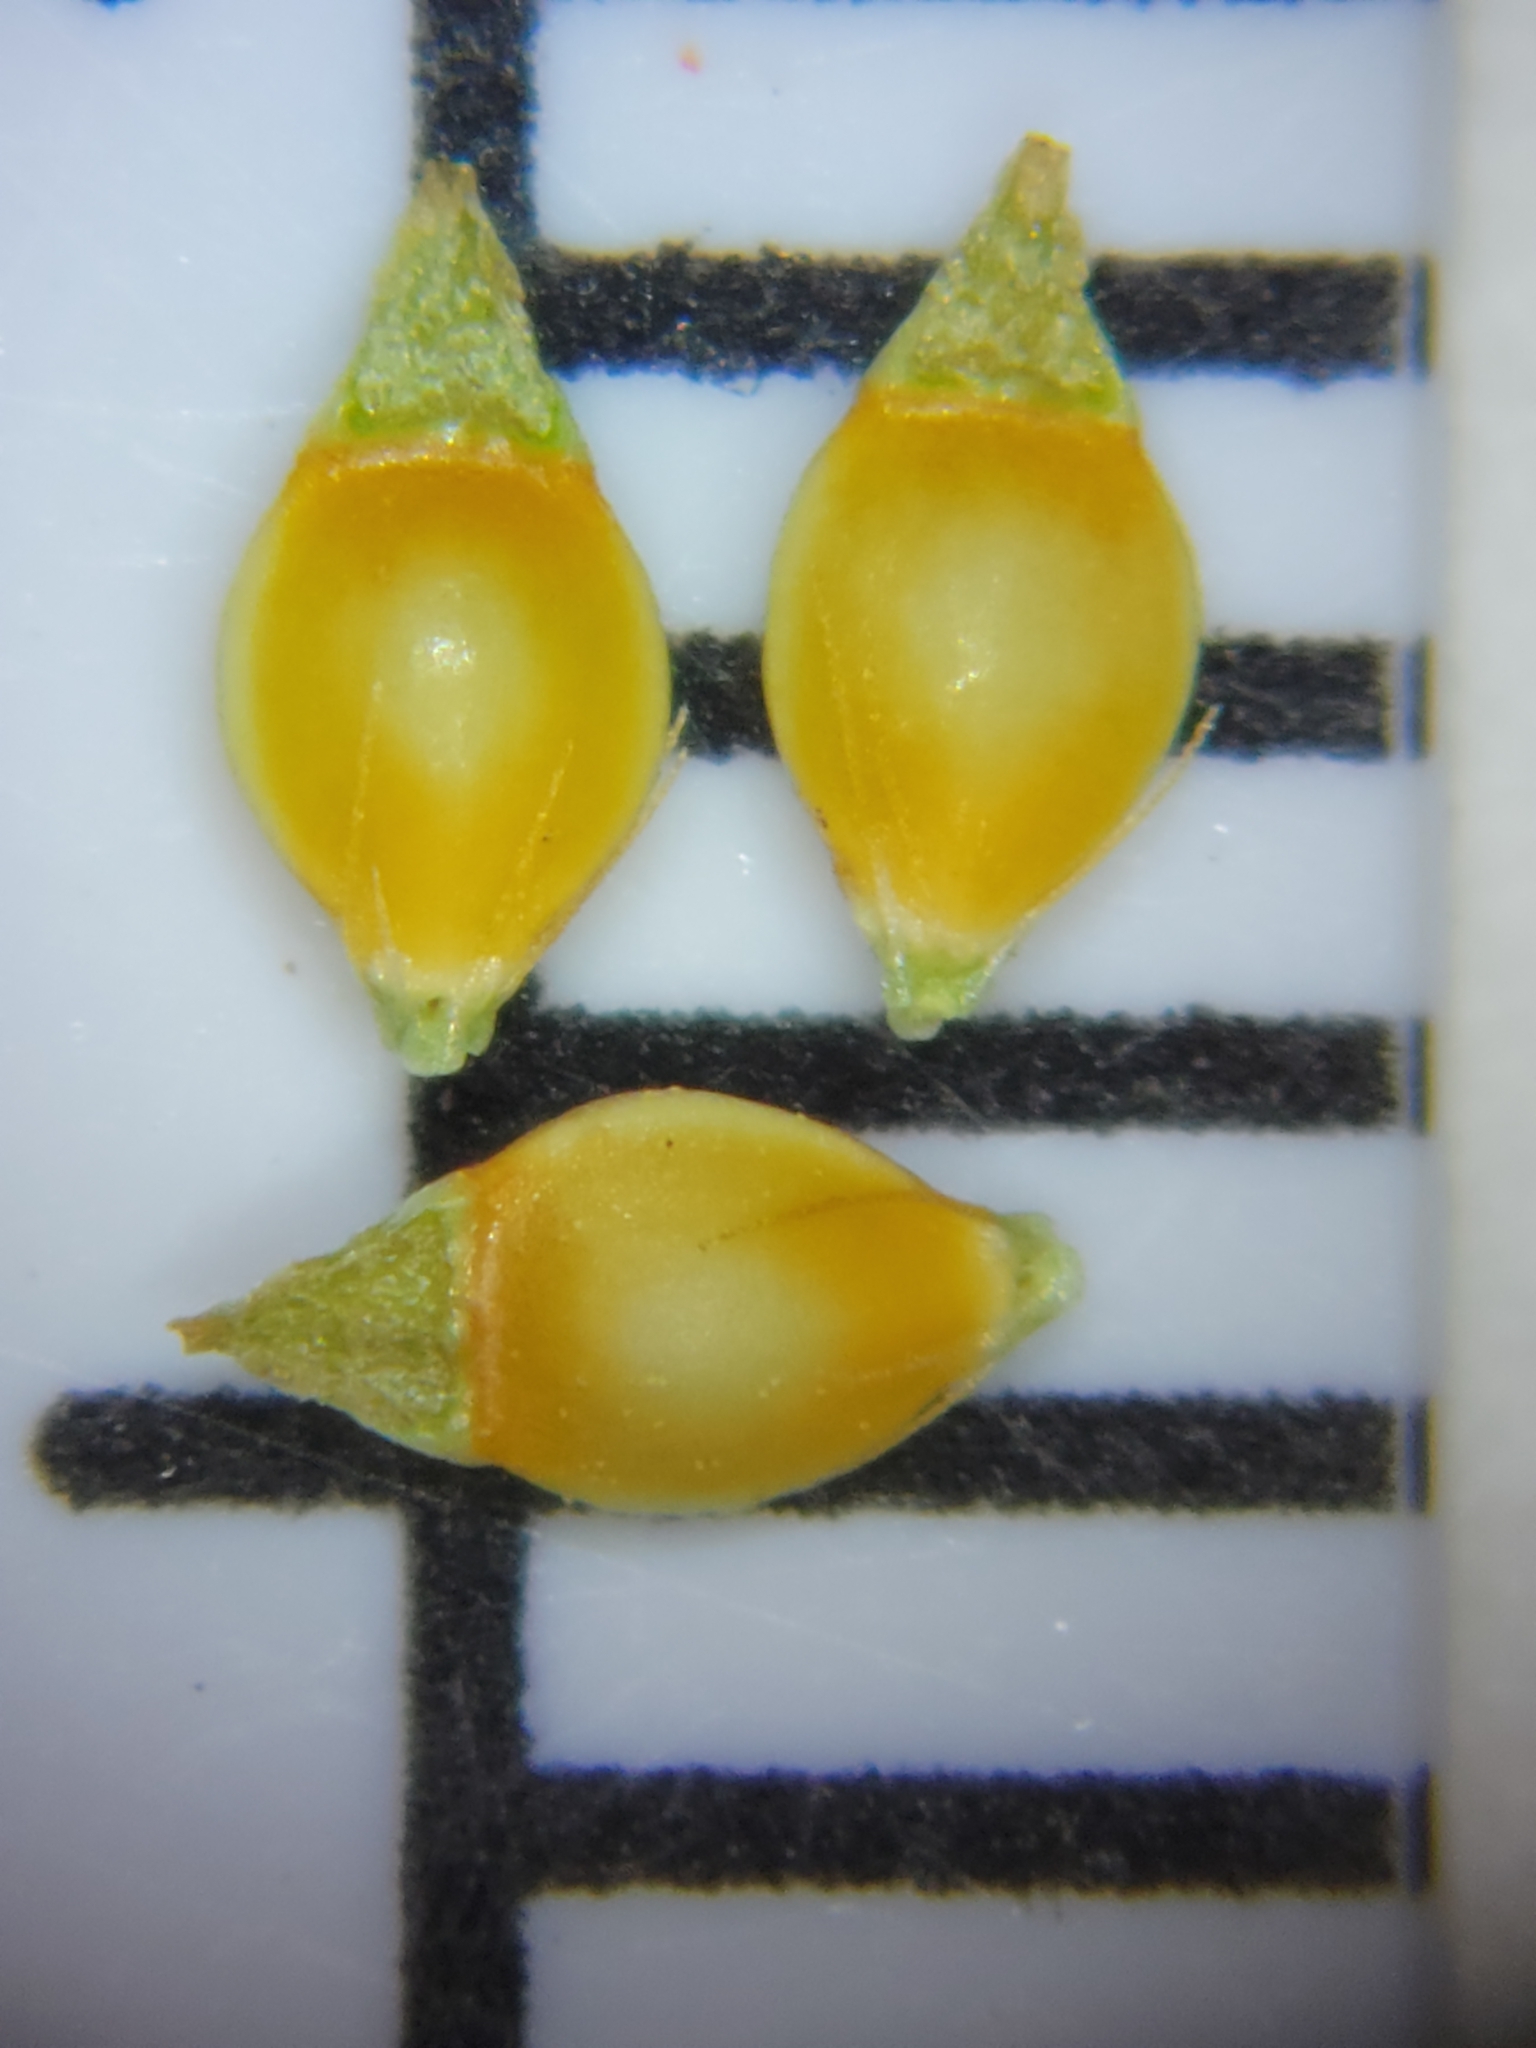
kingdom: Plantae
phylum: Tracheophyta
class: Liliopsida
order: Poales
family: Cyperaceae
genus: Rhynchospora
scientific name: Rhynchospora fascicularis
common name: Fascicled beak sedge
